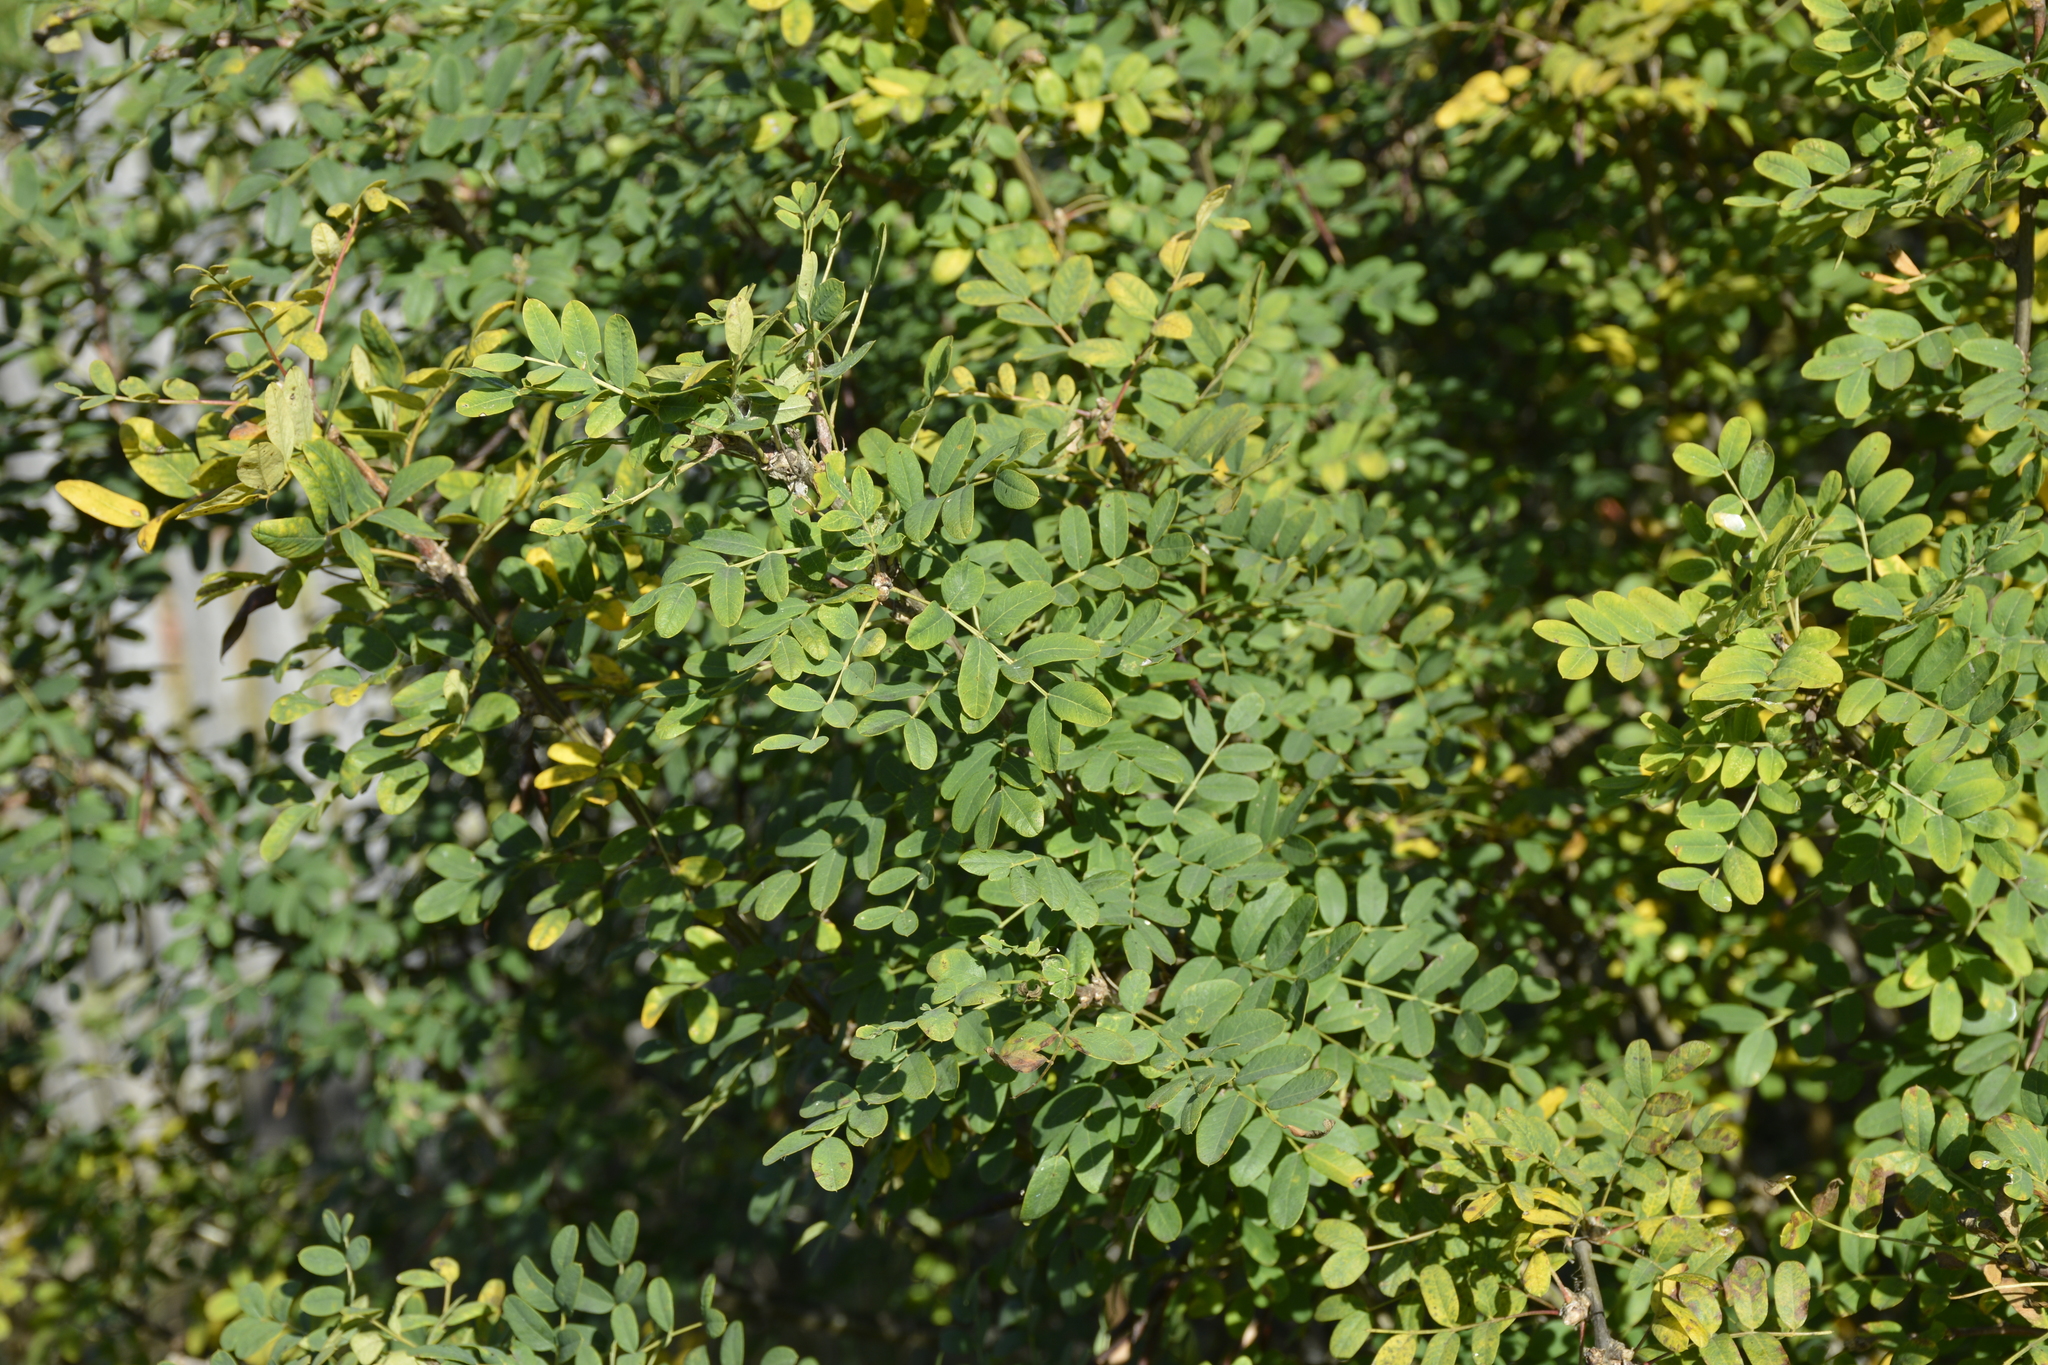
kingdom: Plantae
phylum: Tracheophyta
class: Magnoliopsida
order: Fabales
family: Fabaceae
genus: Caragana
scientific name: Caragana arborescens
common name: Siberian peashrub
